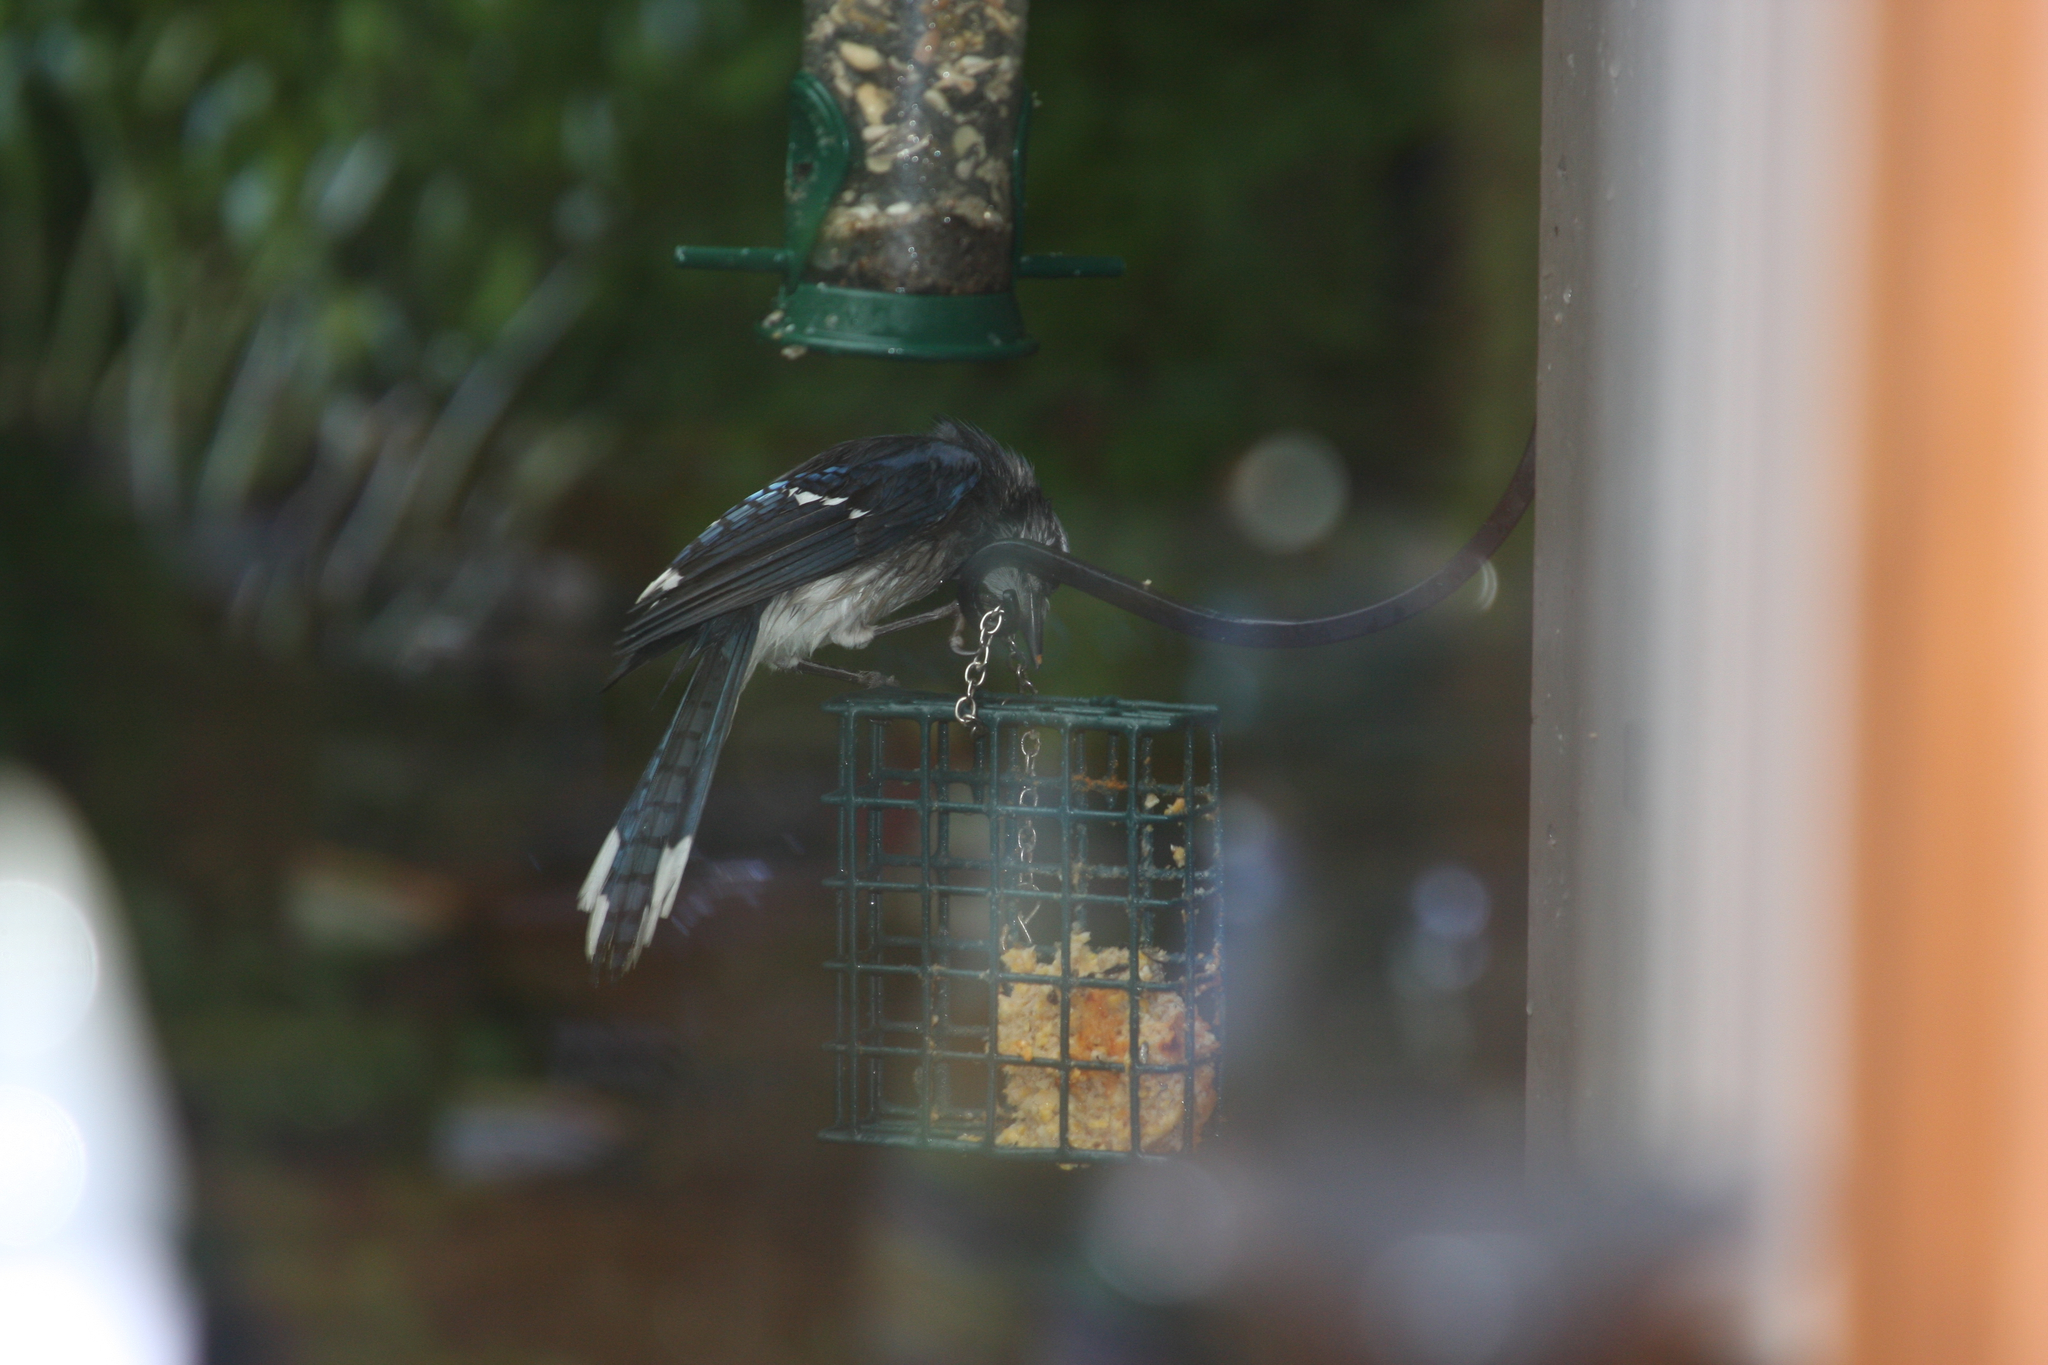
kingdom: Animalia
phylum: Chordata
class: Aves
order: Passeriformes
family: Corvidae
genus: Cyanocitta
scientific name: Cyanocitta cristata
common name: Blue jay
